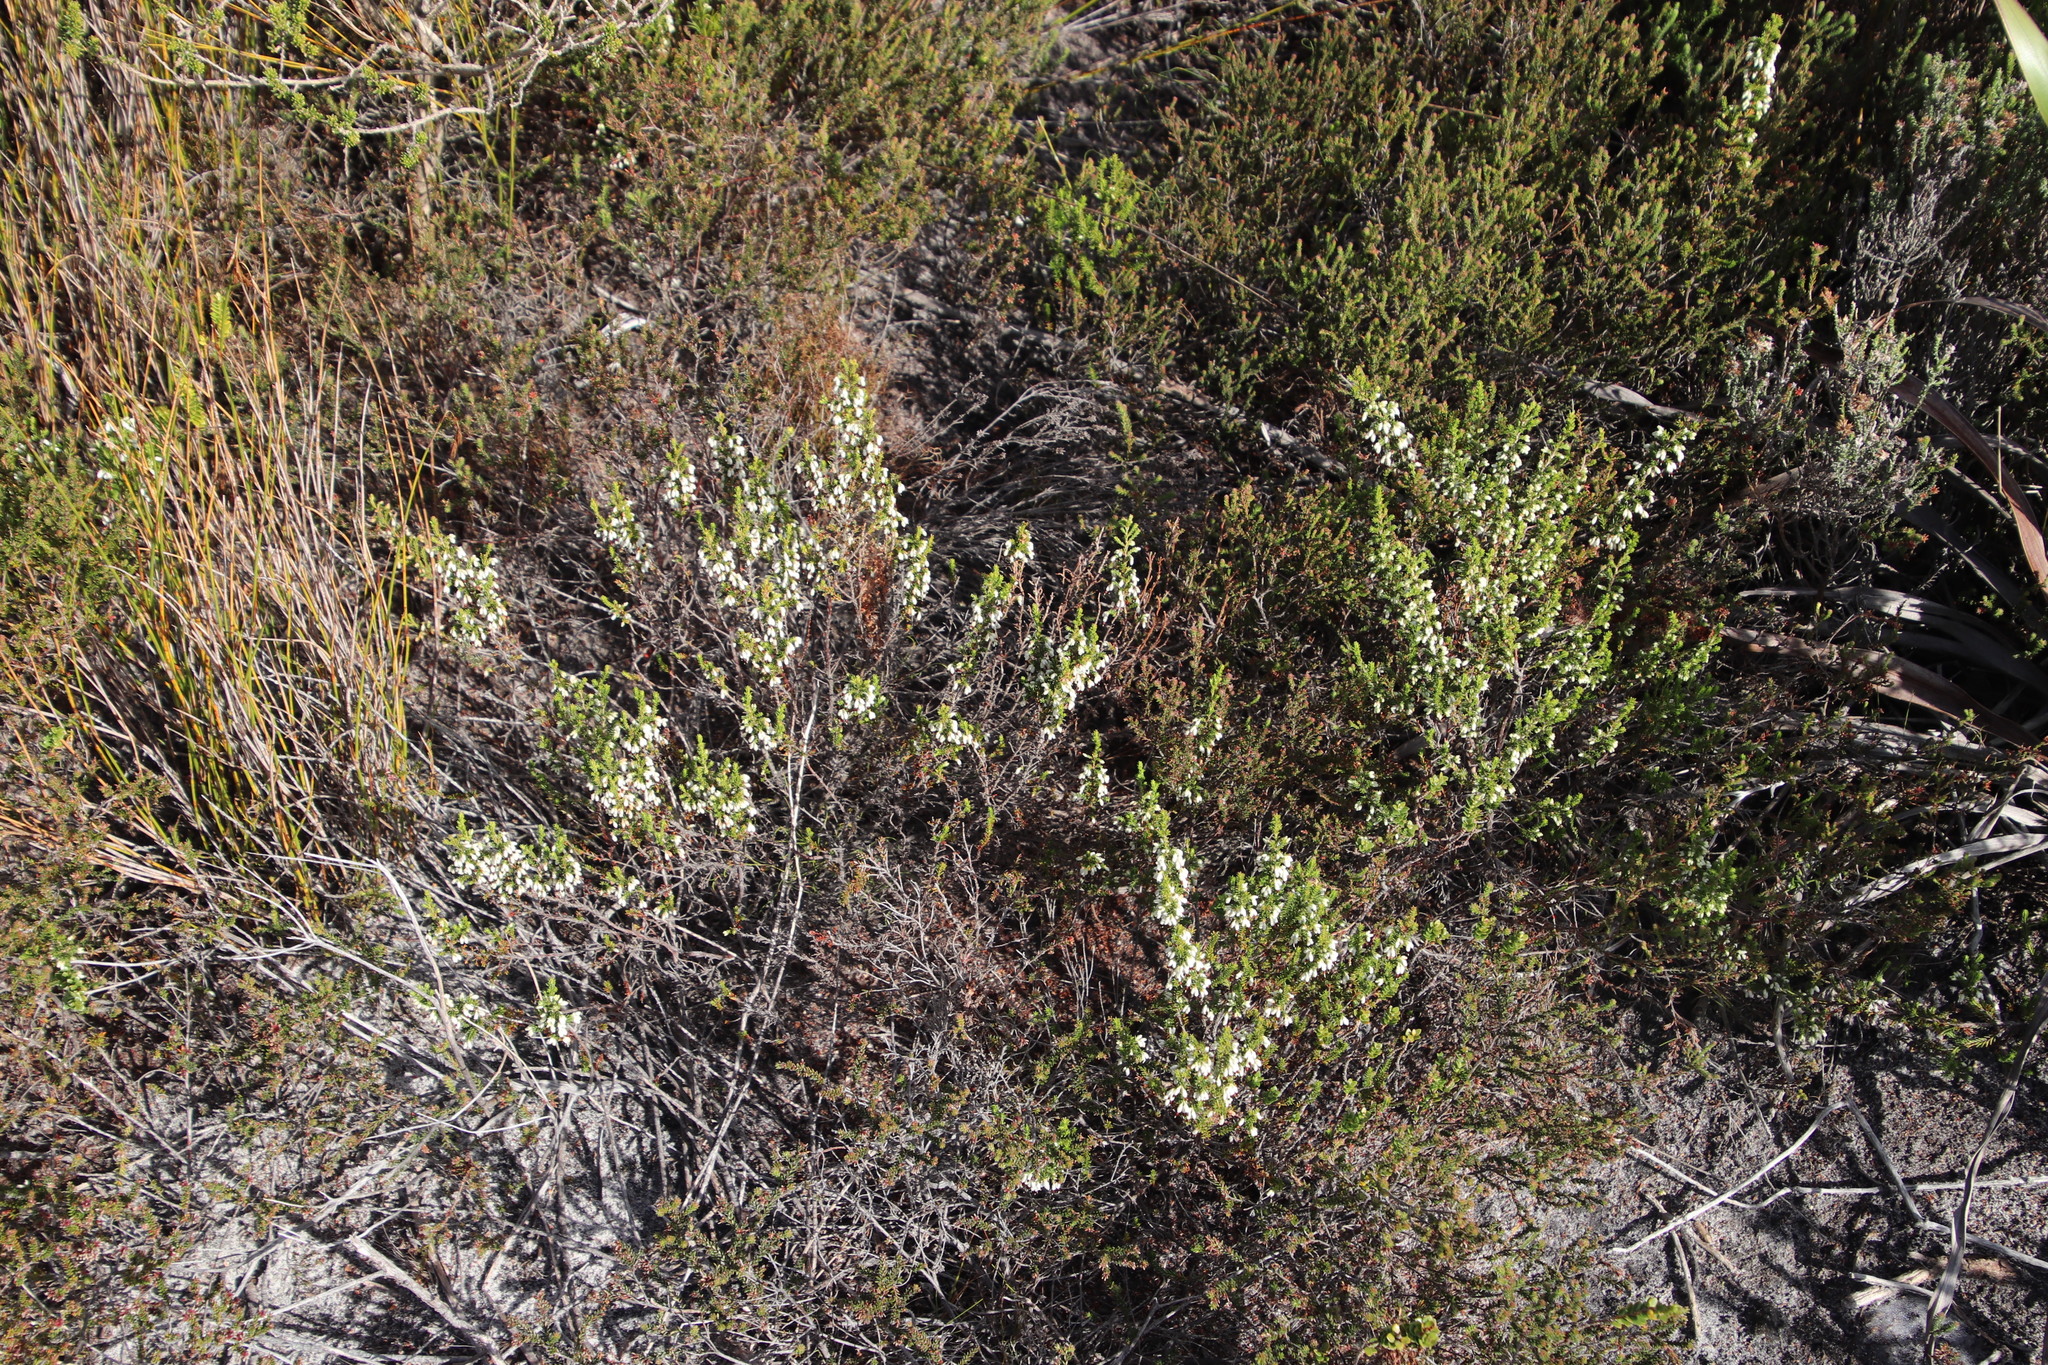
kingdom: Plantae
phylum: Tracheophyta
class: Magnoliopsida
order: Ericales
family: Ericaceae
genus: Erica
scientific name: Erica imbricata
